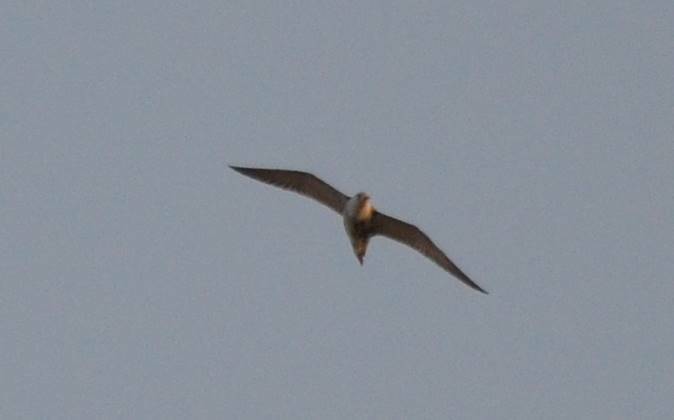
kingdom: Animalia
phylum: Chordata
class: Aves
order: Charadriiformes
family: Scolopacidae
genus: Calidris
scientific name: Calidris pugnax
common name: Ruff
